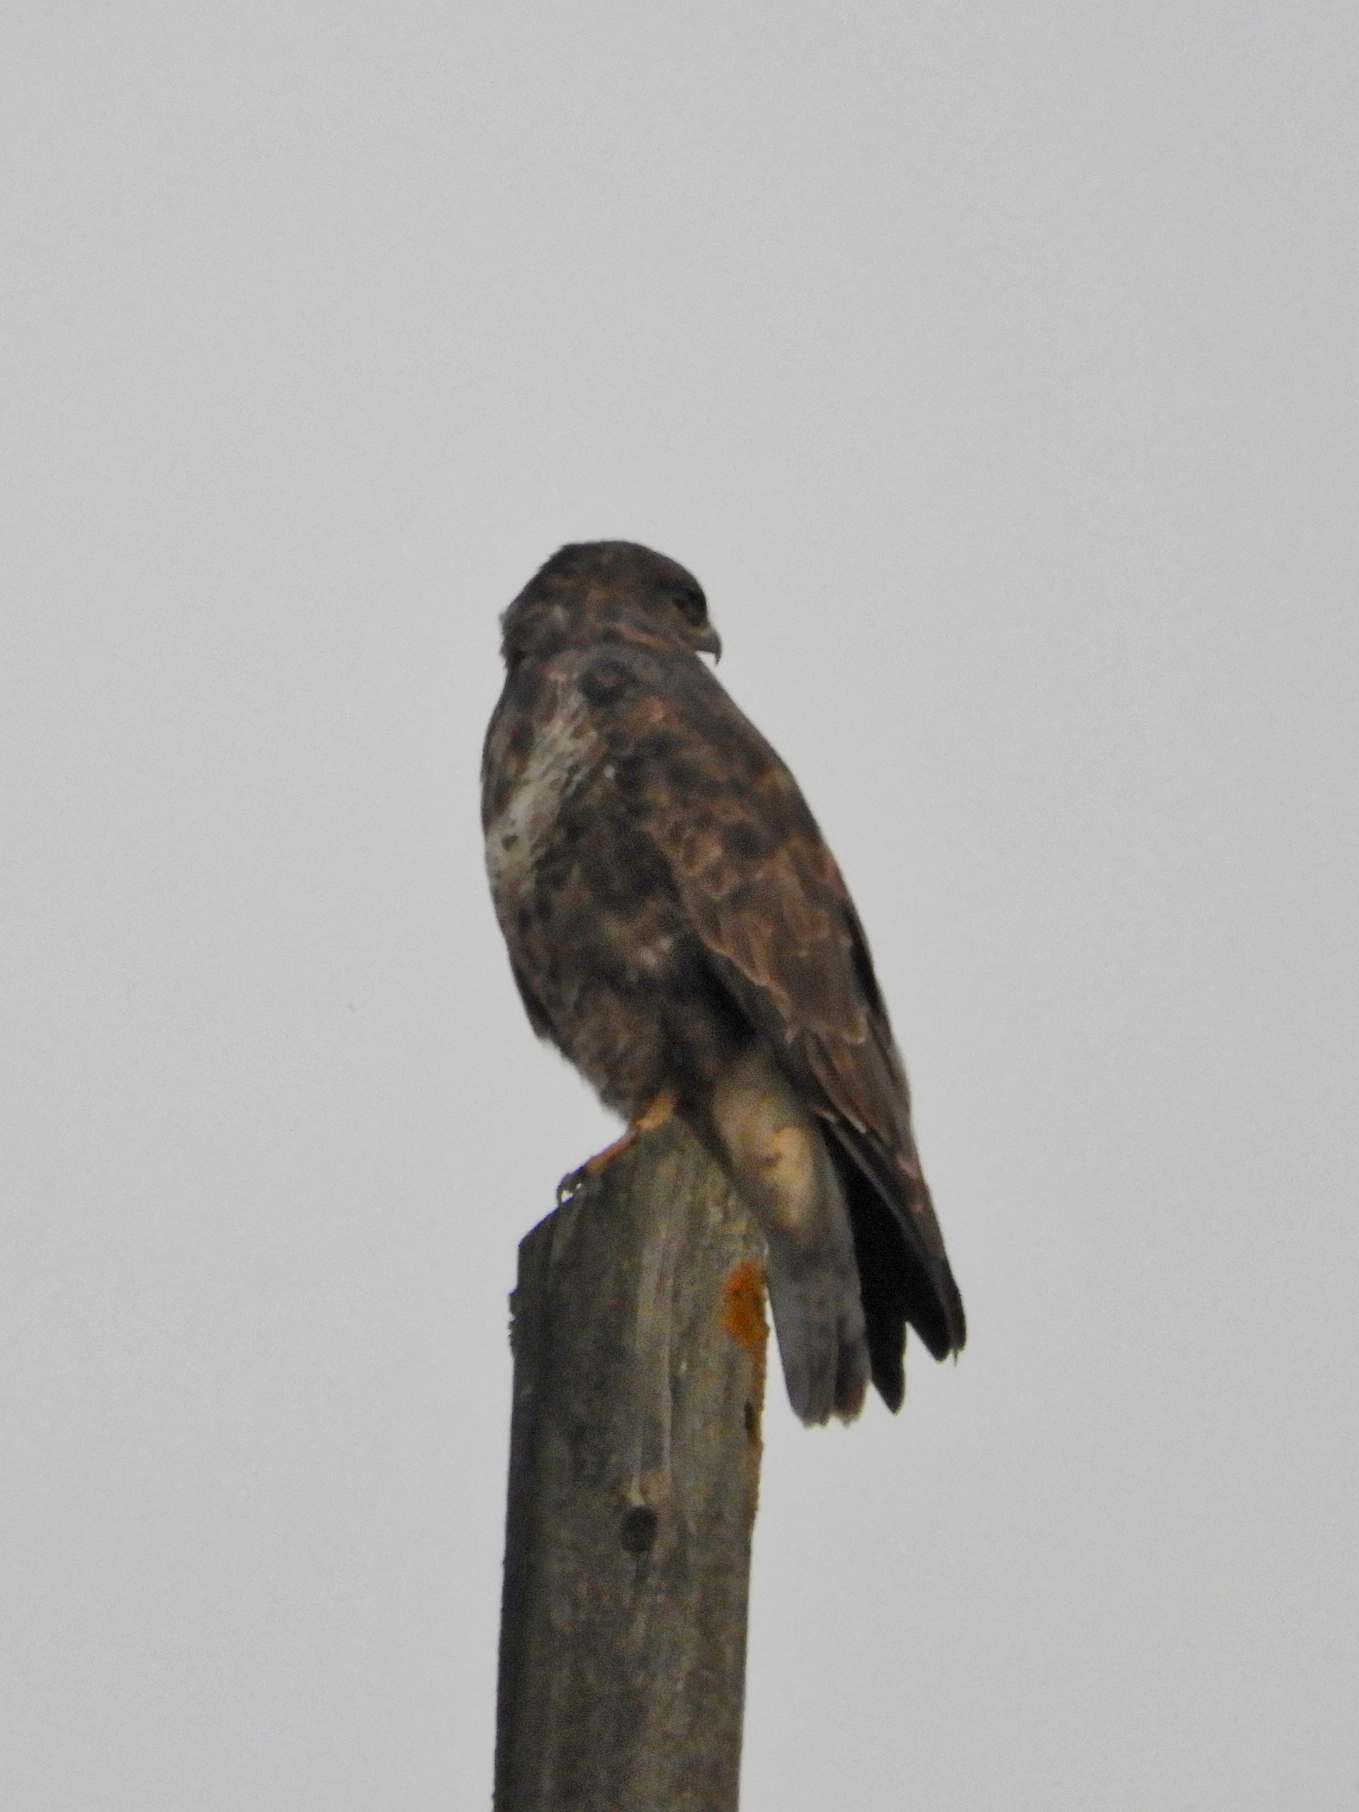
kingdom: Animalia
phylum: Chordata
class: Aves
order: Accipitriformes
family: Accipitridae
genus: Buteo
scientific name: Buteo buteo
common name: Common buzzard
